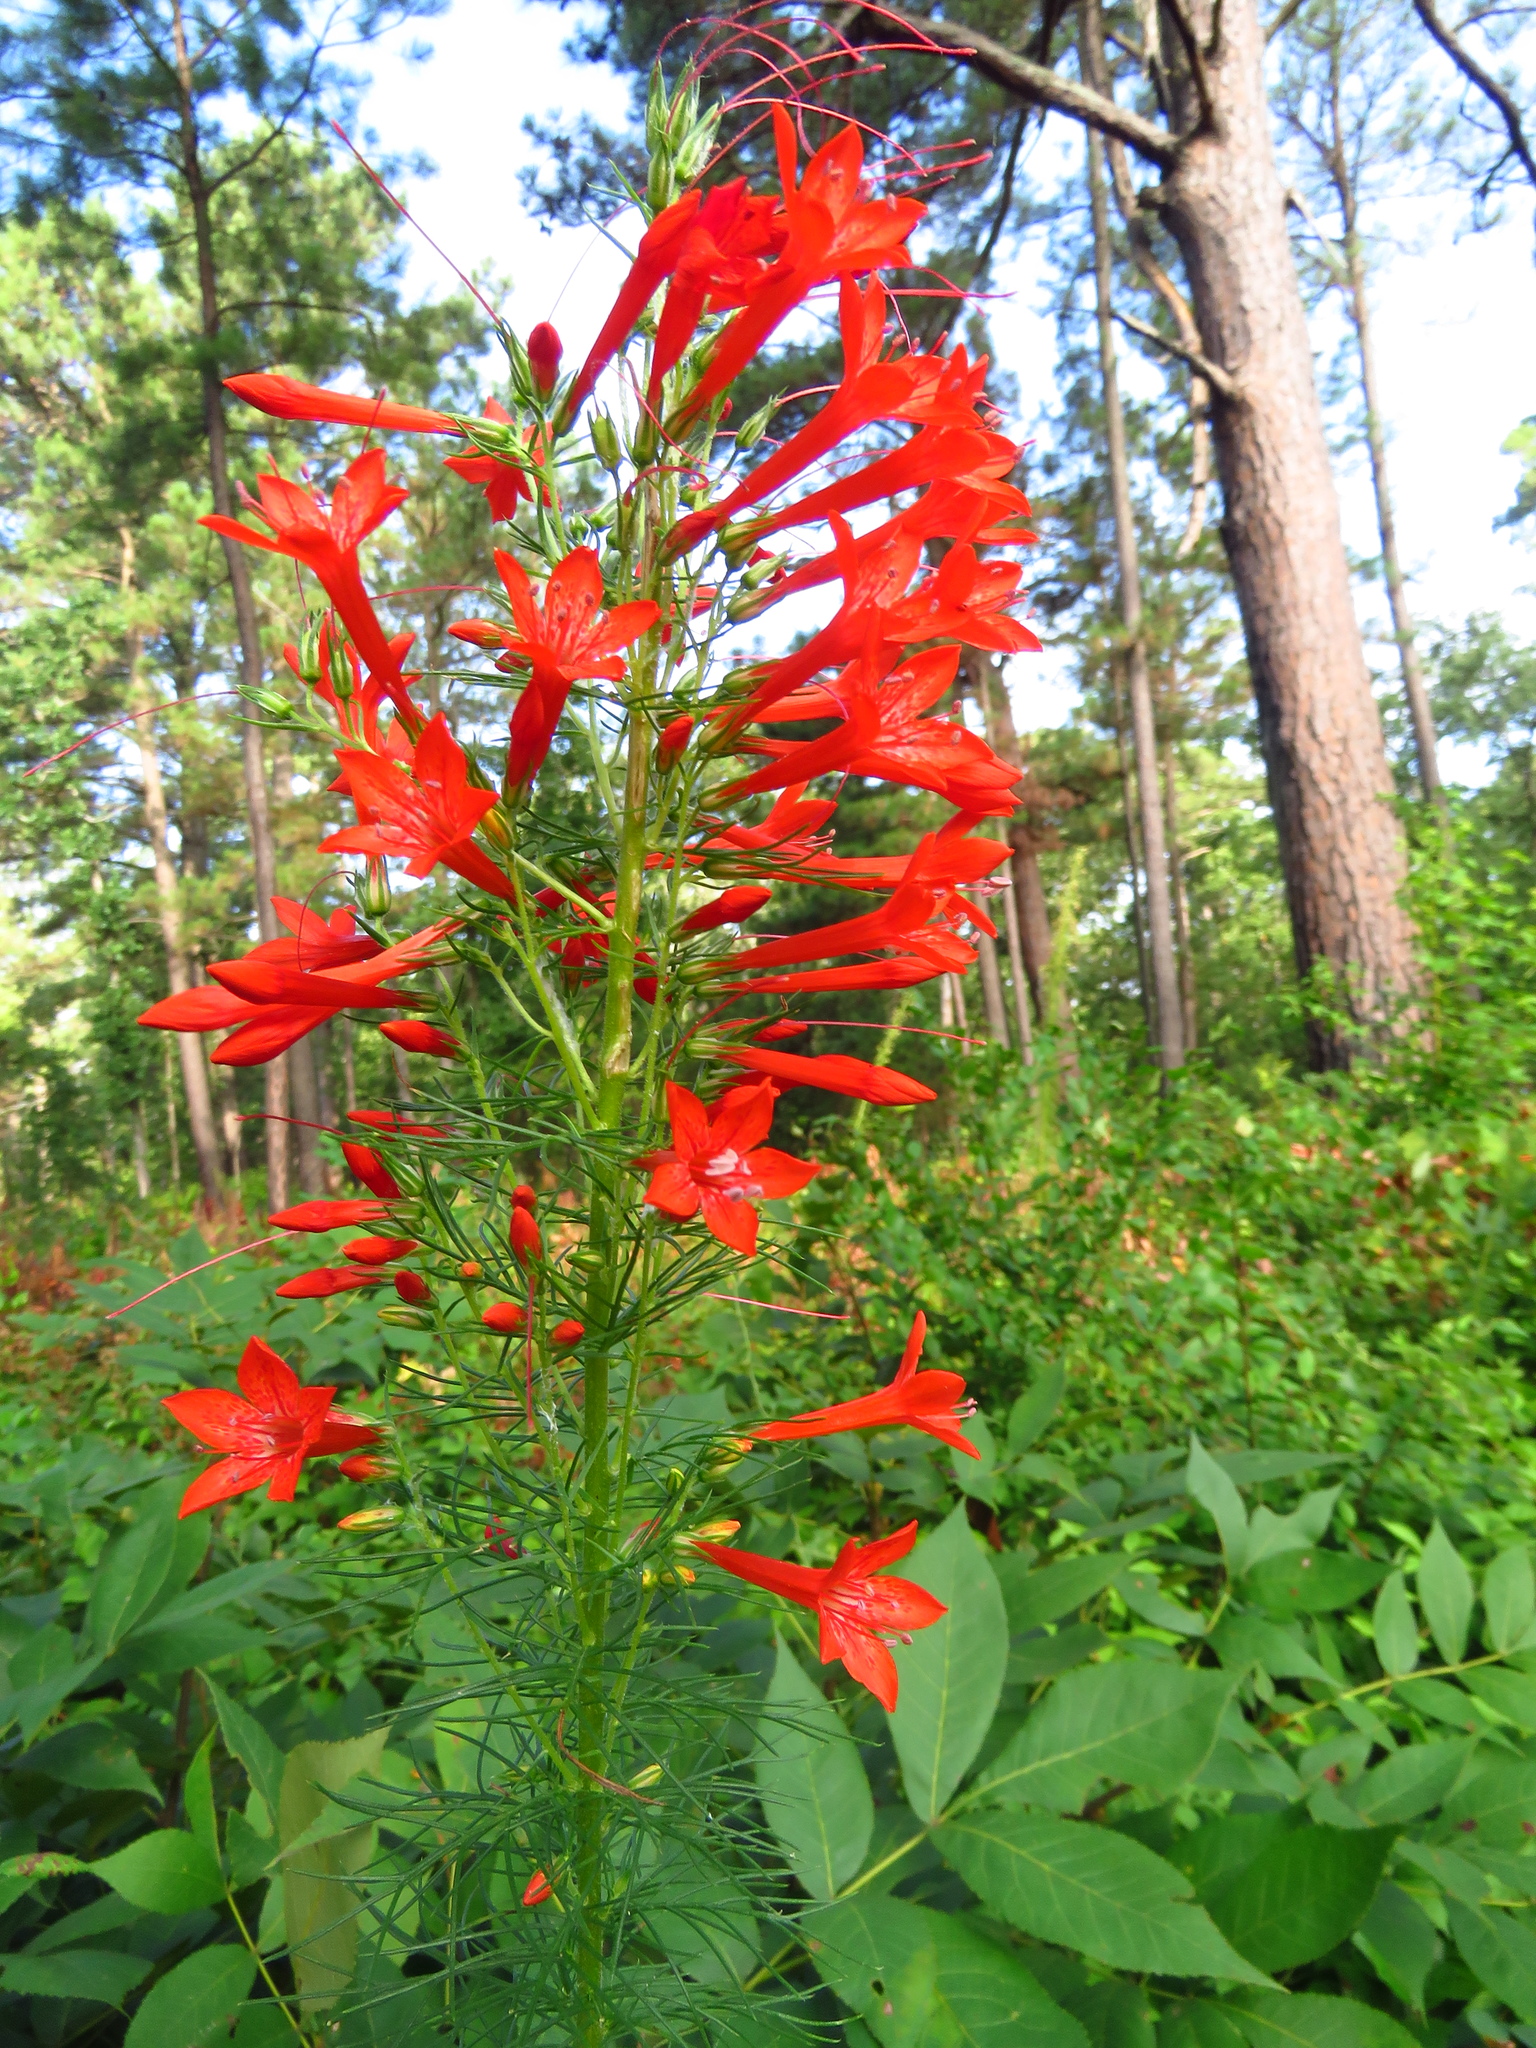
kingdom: Plantae
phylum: Tracheophyta
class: Magnoliopsida
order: Ericales
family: Polemoniaceae
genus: Ipomopsis
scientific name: Ipomopsis rubra
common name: Skyrocket
